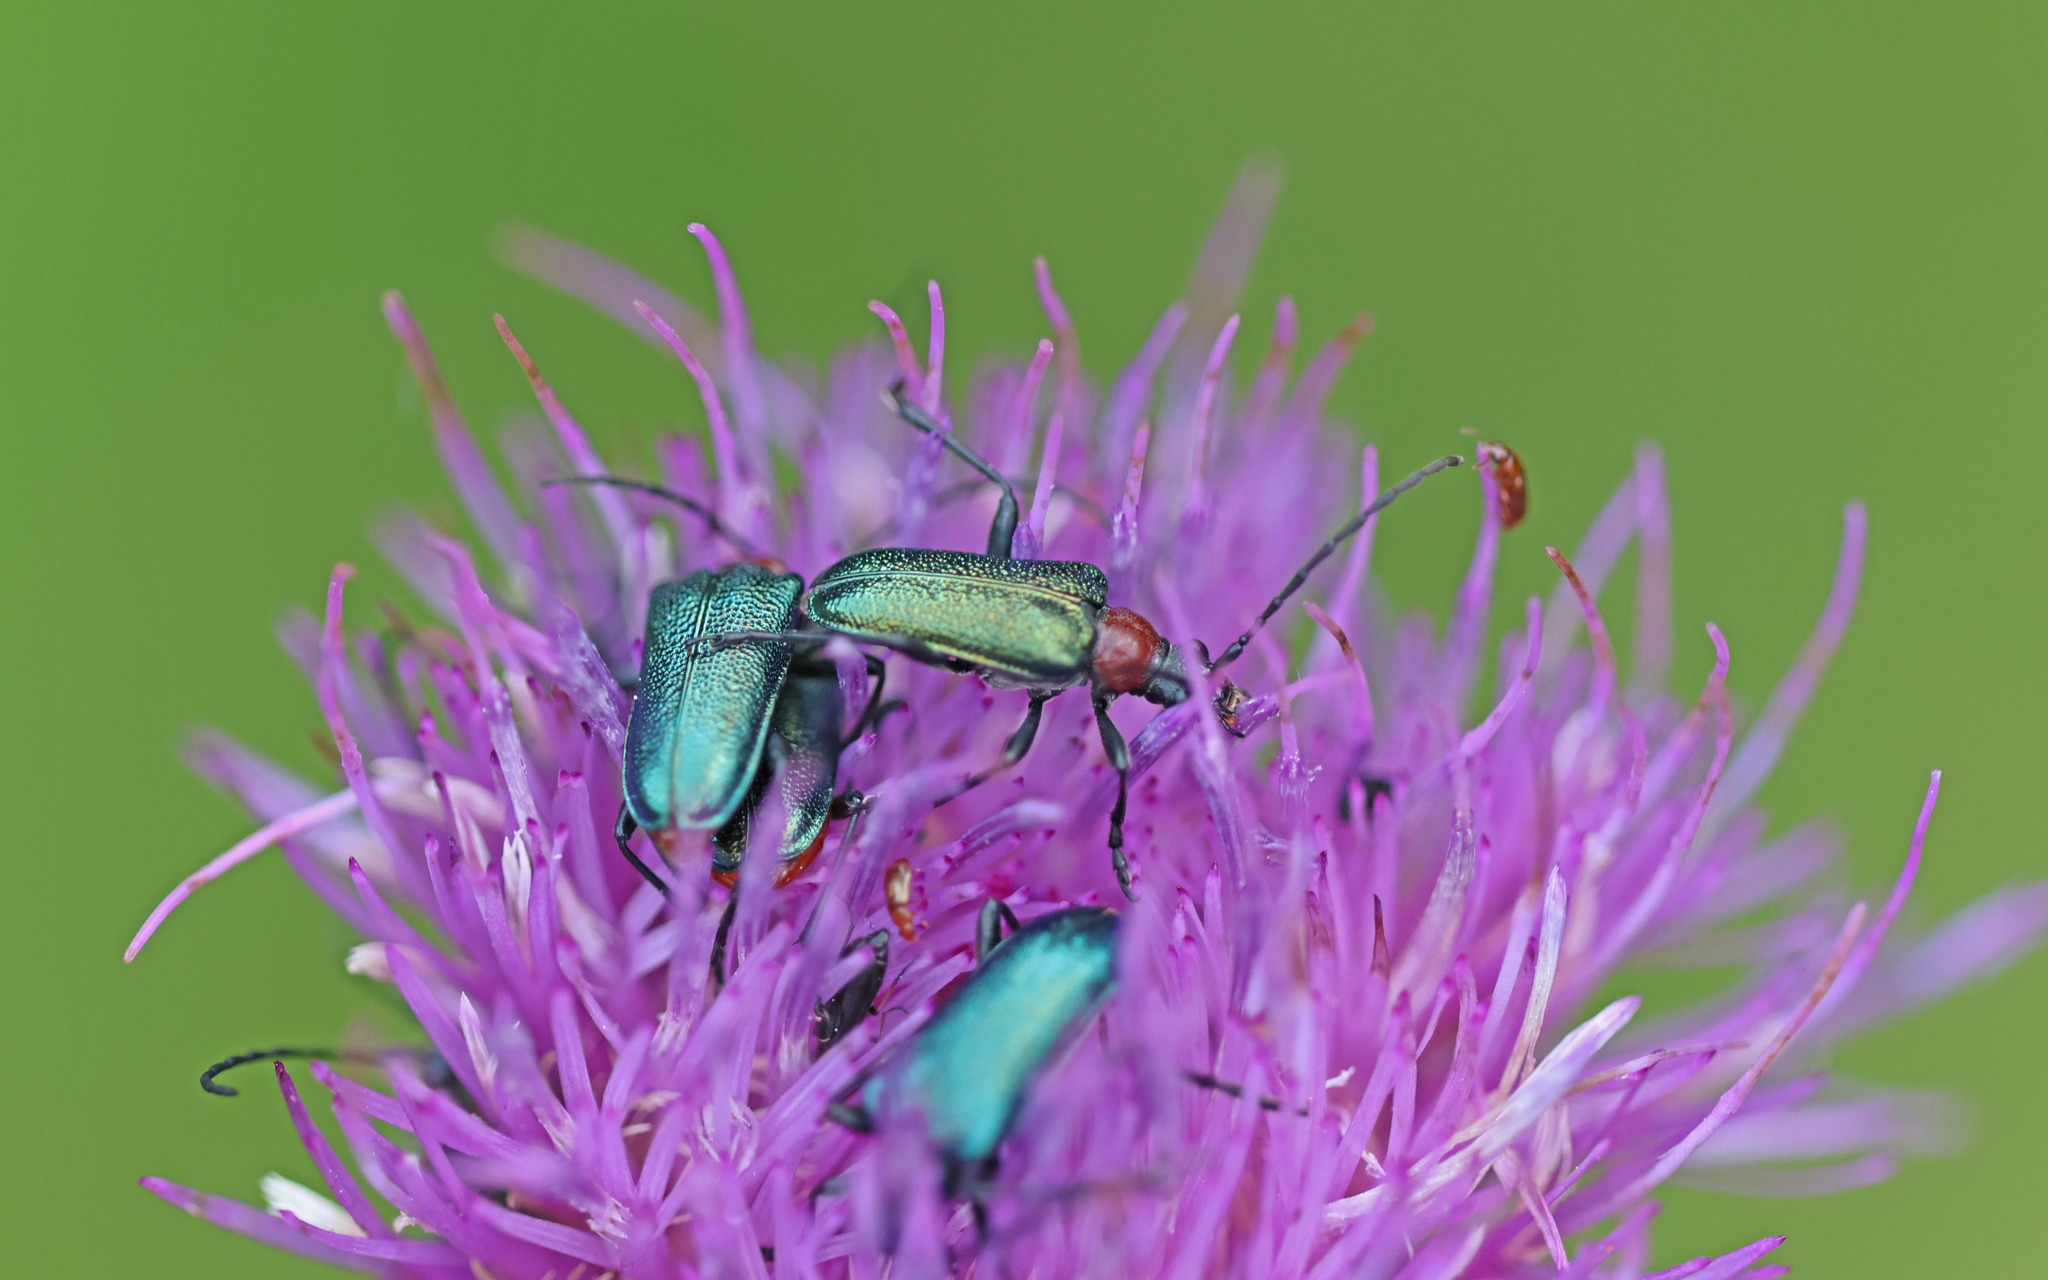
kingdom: Animalia
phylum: Arthropoda
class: Insecta
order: Coleoptera
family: Cerambycidae
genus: Gaurotes
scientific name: Gaurotes virginea
